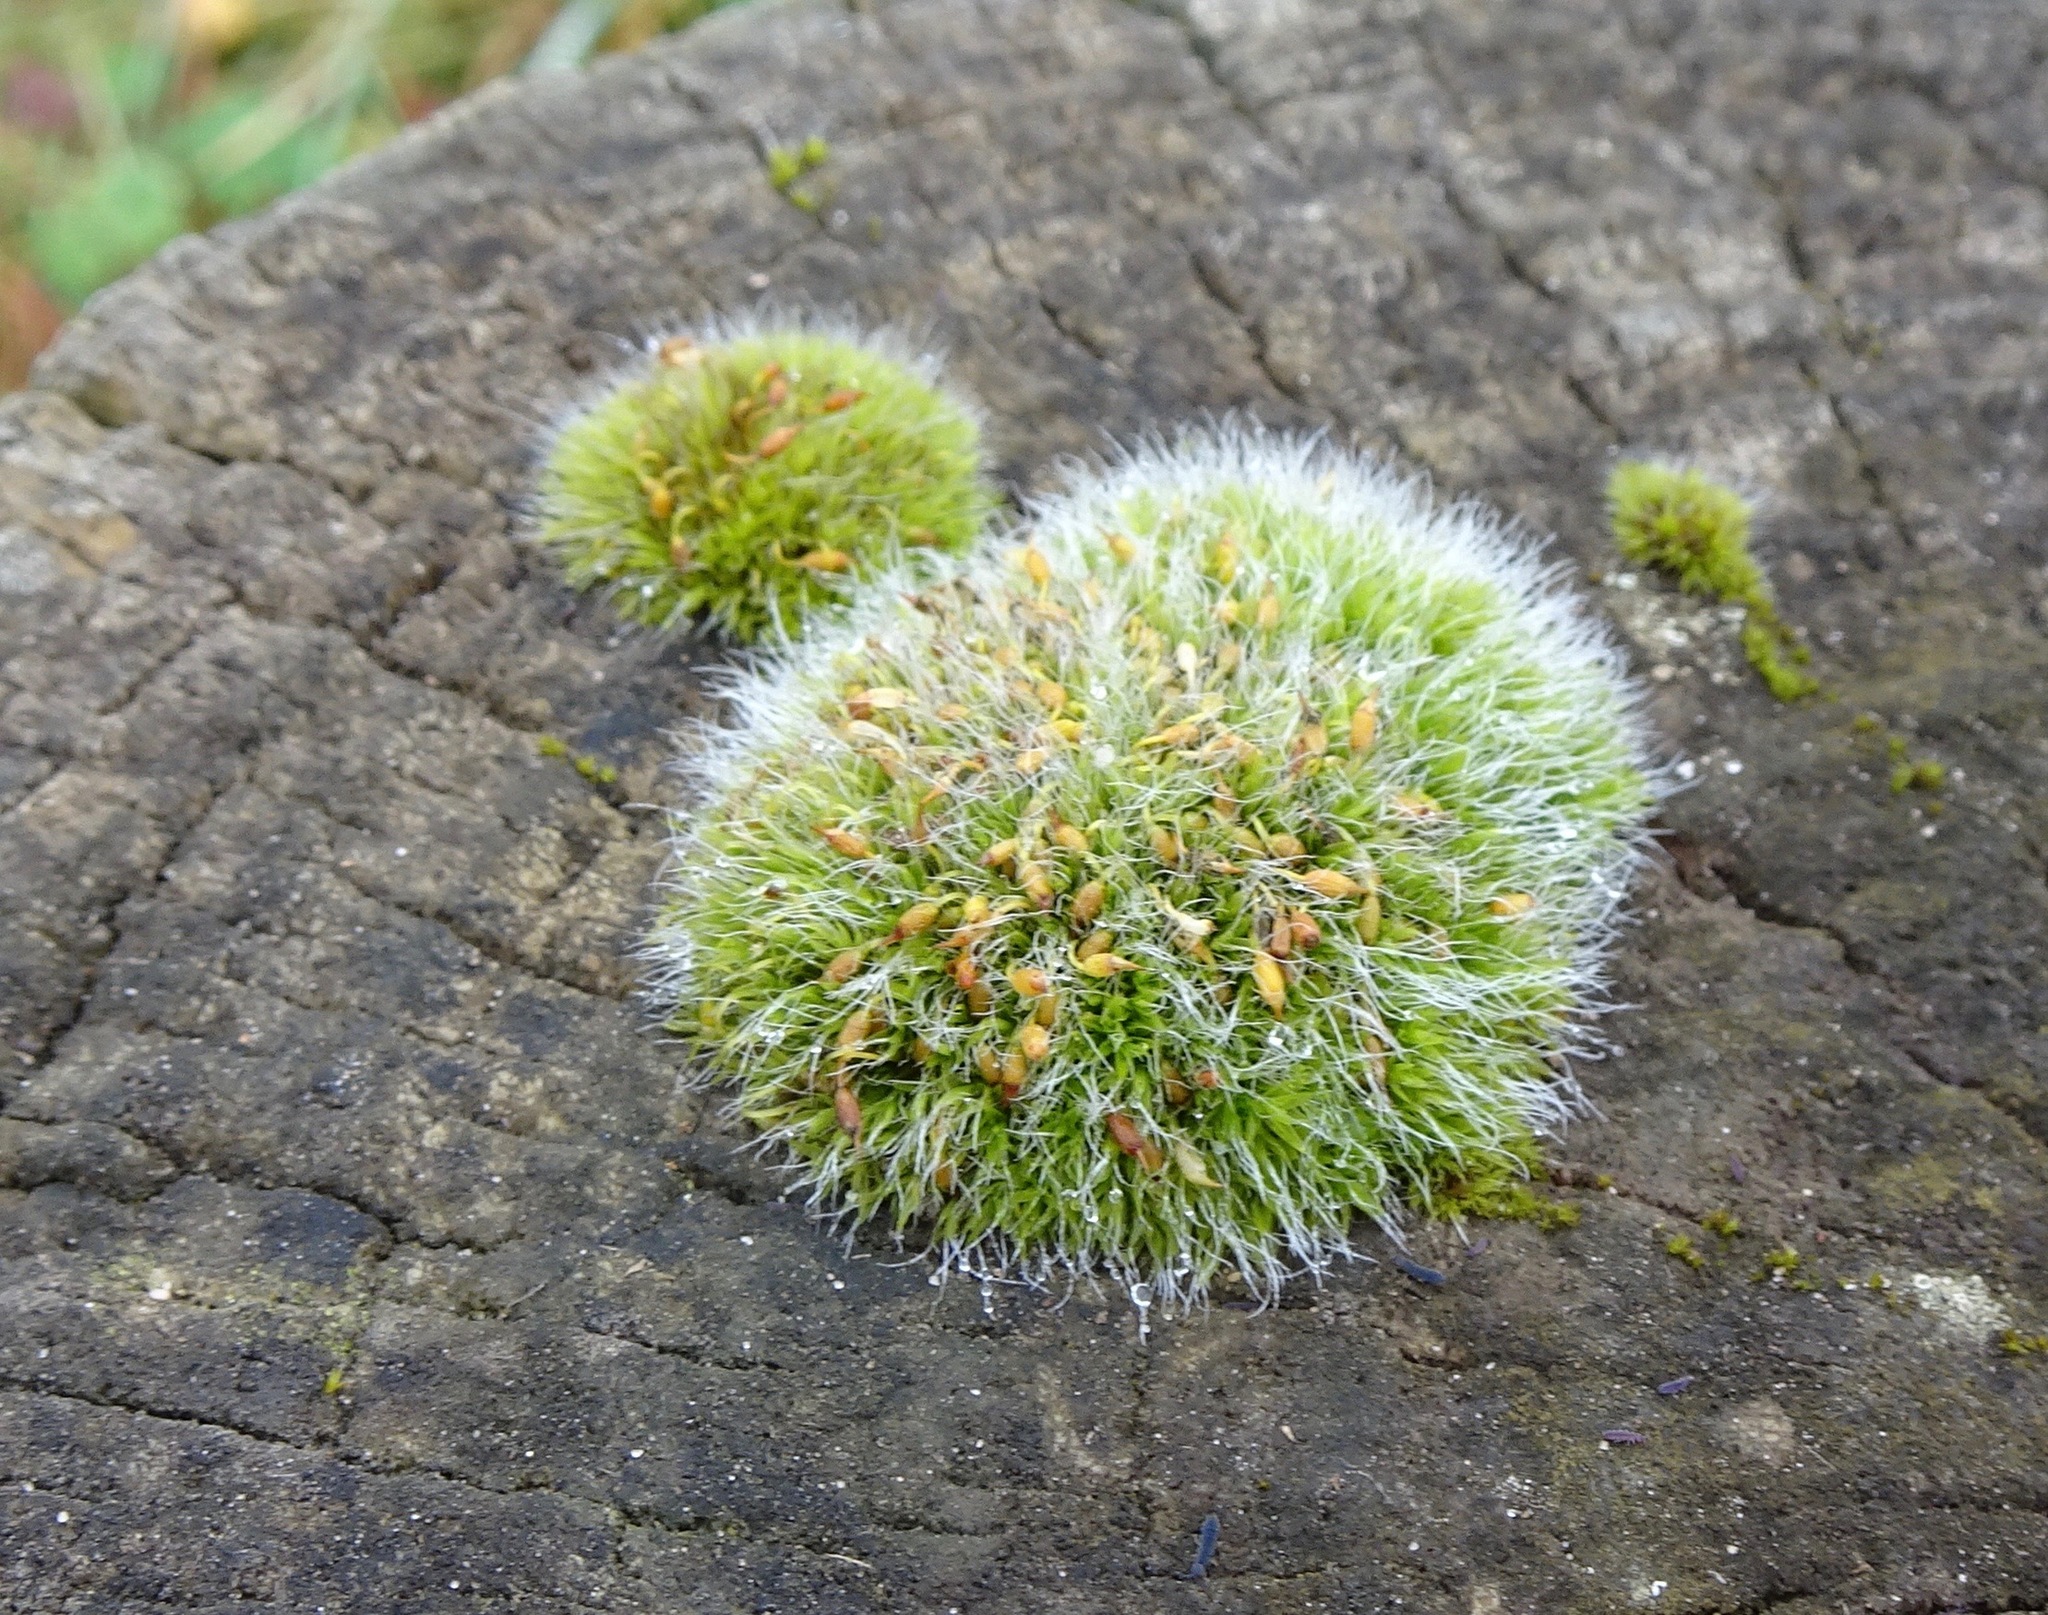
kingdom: Plantae
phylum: Bryophyta
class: Bryopsida
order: Grimmiales
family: Grimmiaceae
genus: Grimmia
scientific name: Grimmia pulvinata
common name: Grey-cushioned grimmia
